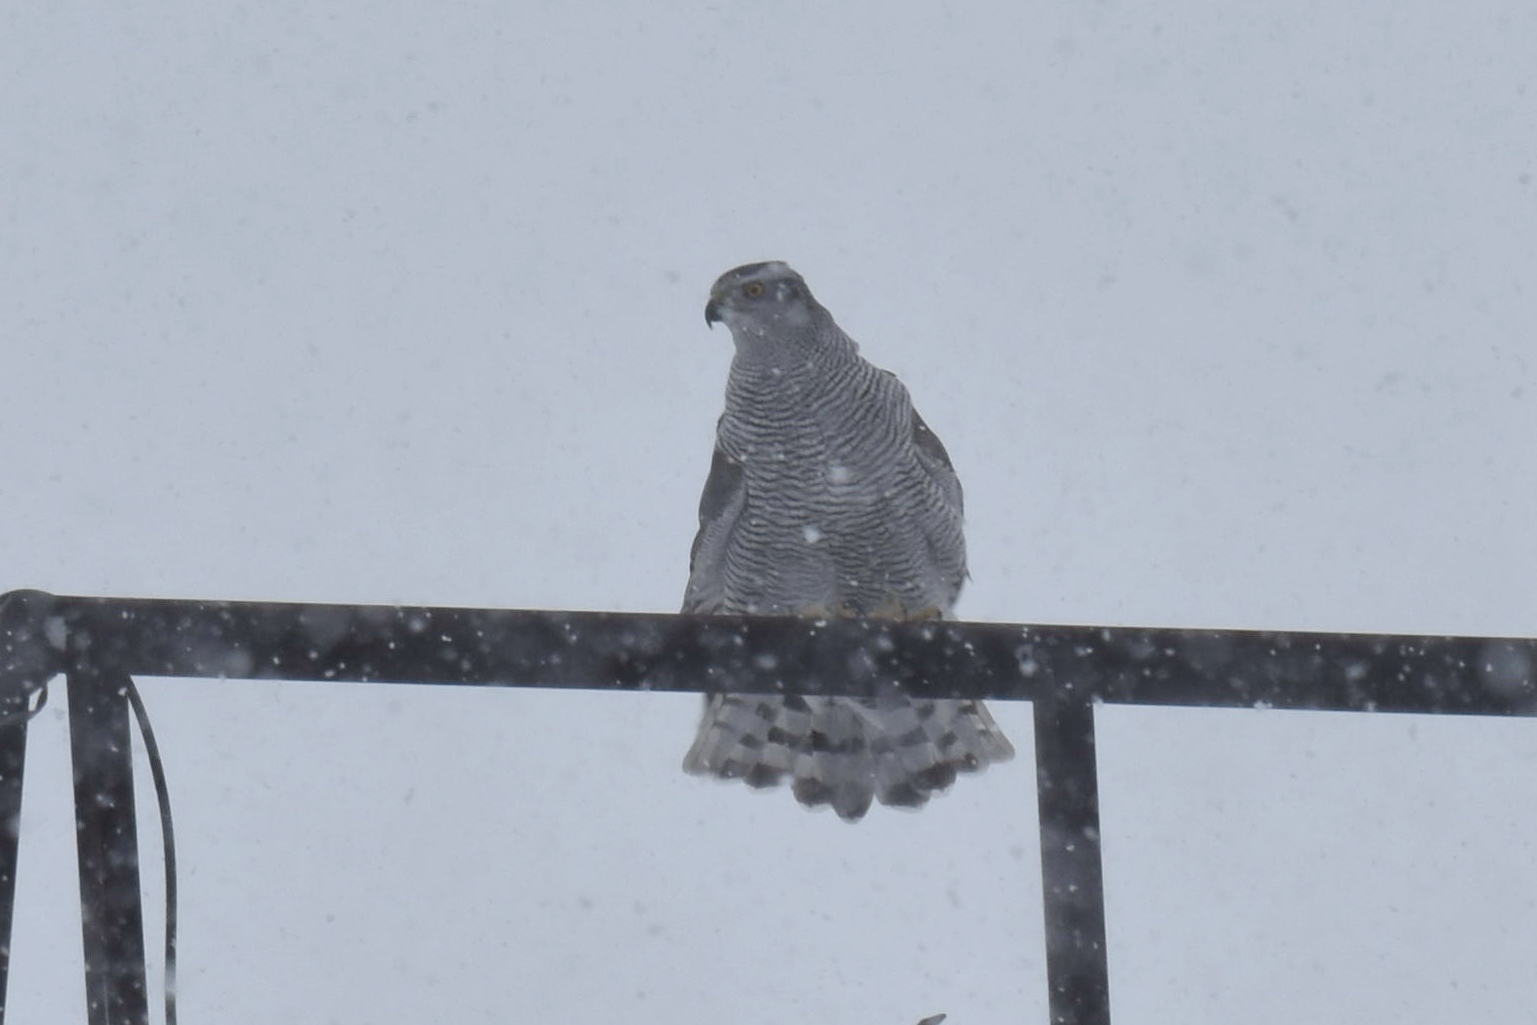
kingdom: Animalia
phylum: Chordata
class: Aves
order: Accipitriformes
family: Accipitridae
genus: Accipiter
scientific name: Accipiter gentilis
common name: Northern goshawk
